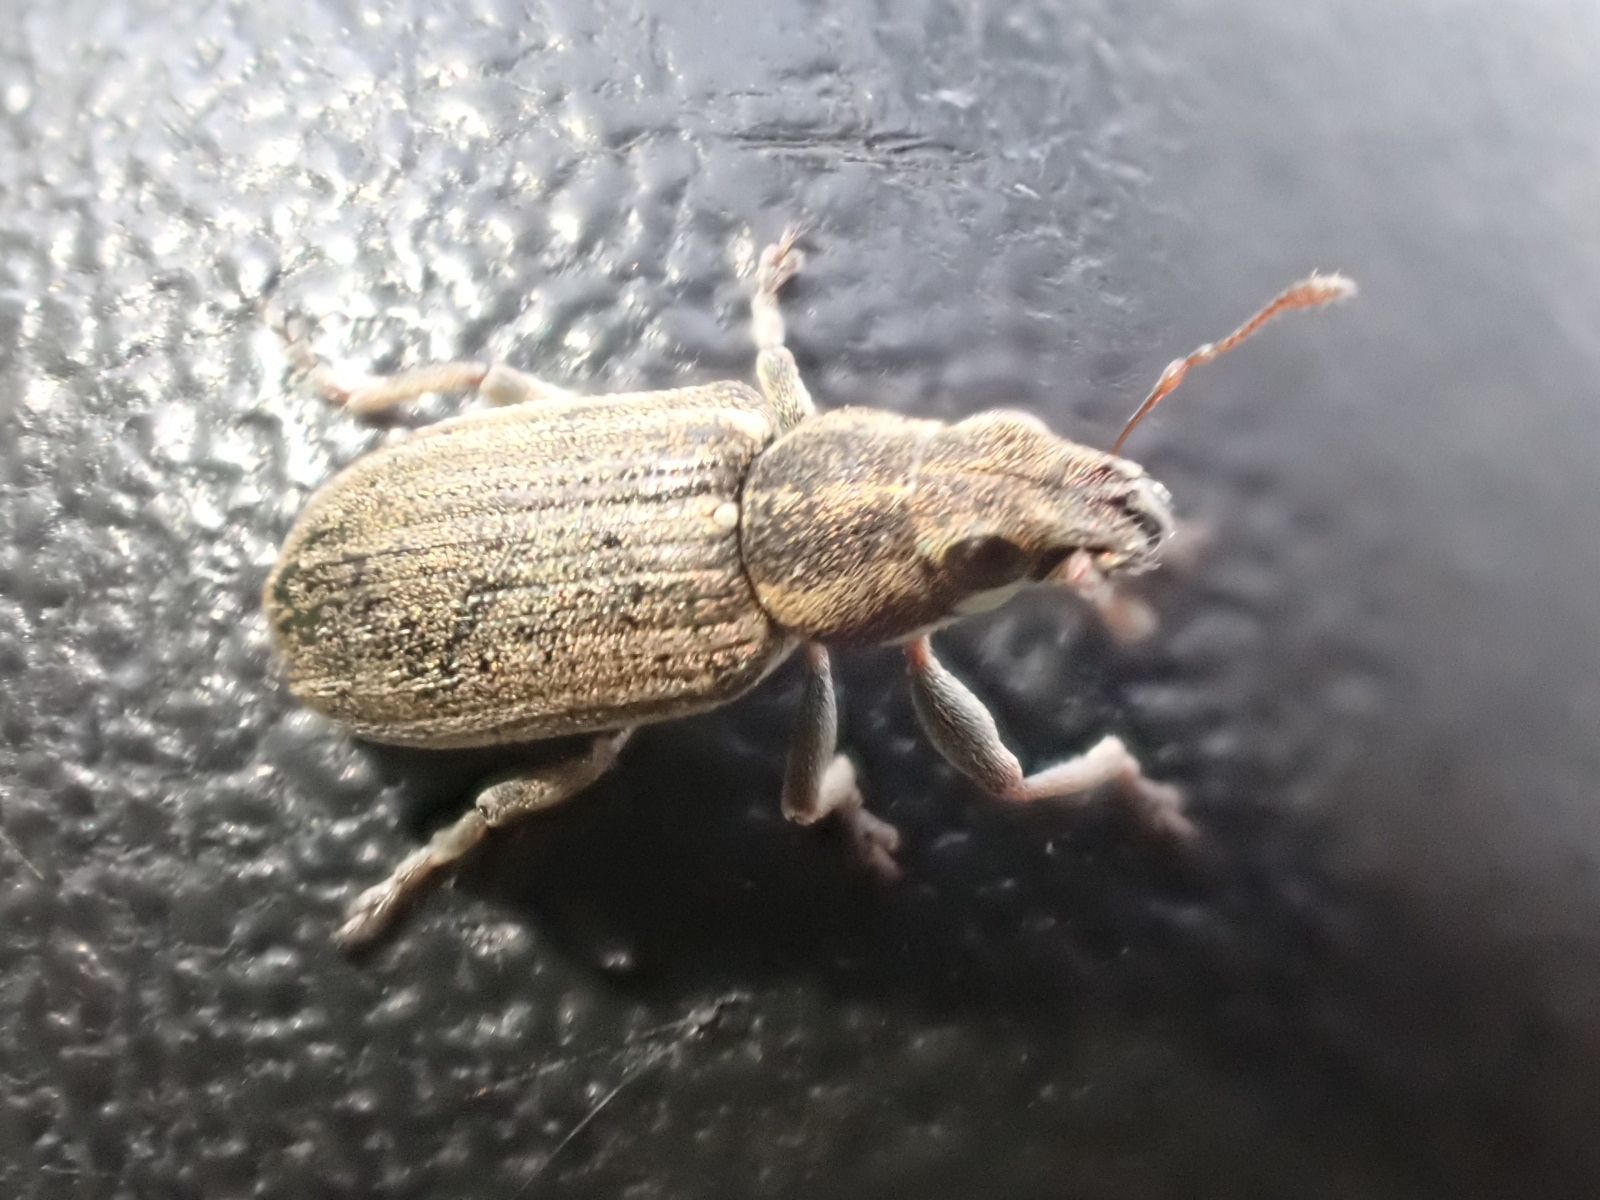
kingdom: Animalia
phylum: Arthropoda
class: Insecta
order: Coleoptera
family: Curculionidae
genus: Sitona
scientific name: Sitona lineatus
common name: Weevil
